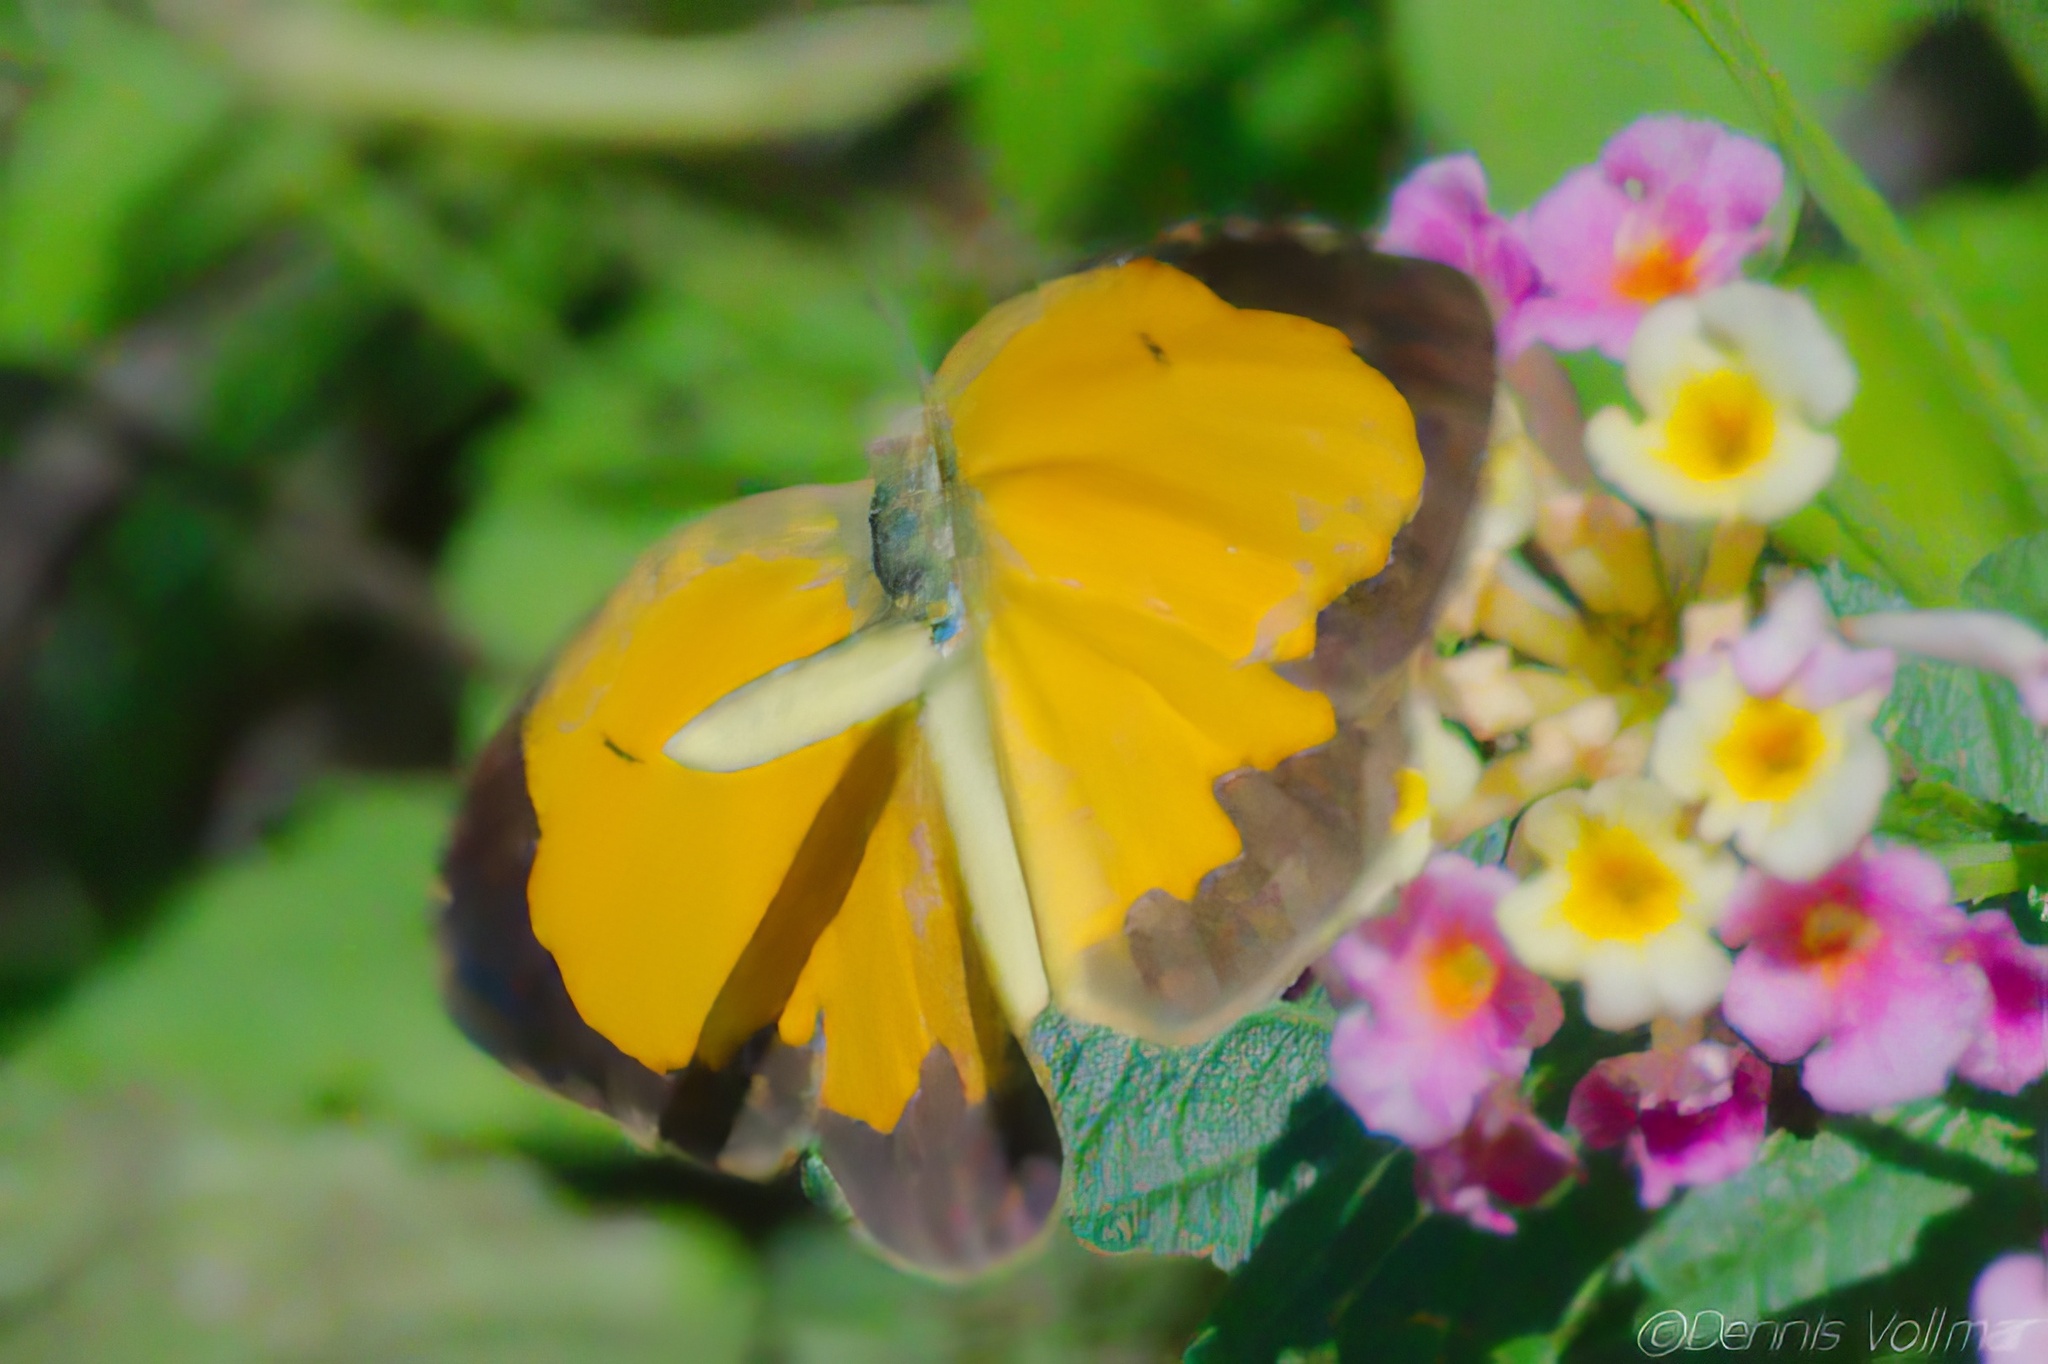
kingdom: Animalia
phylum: Arthropoda
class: Insecta
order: Lepidoptera
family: Pieridae
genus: Abaeis
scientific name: Abaeis nicippe
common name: Sleepy orange
